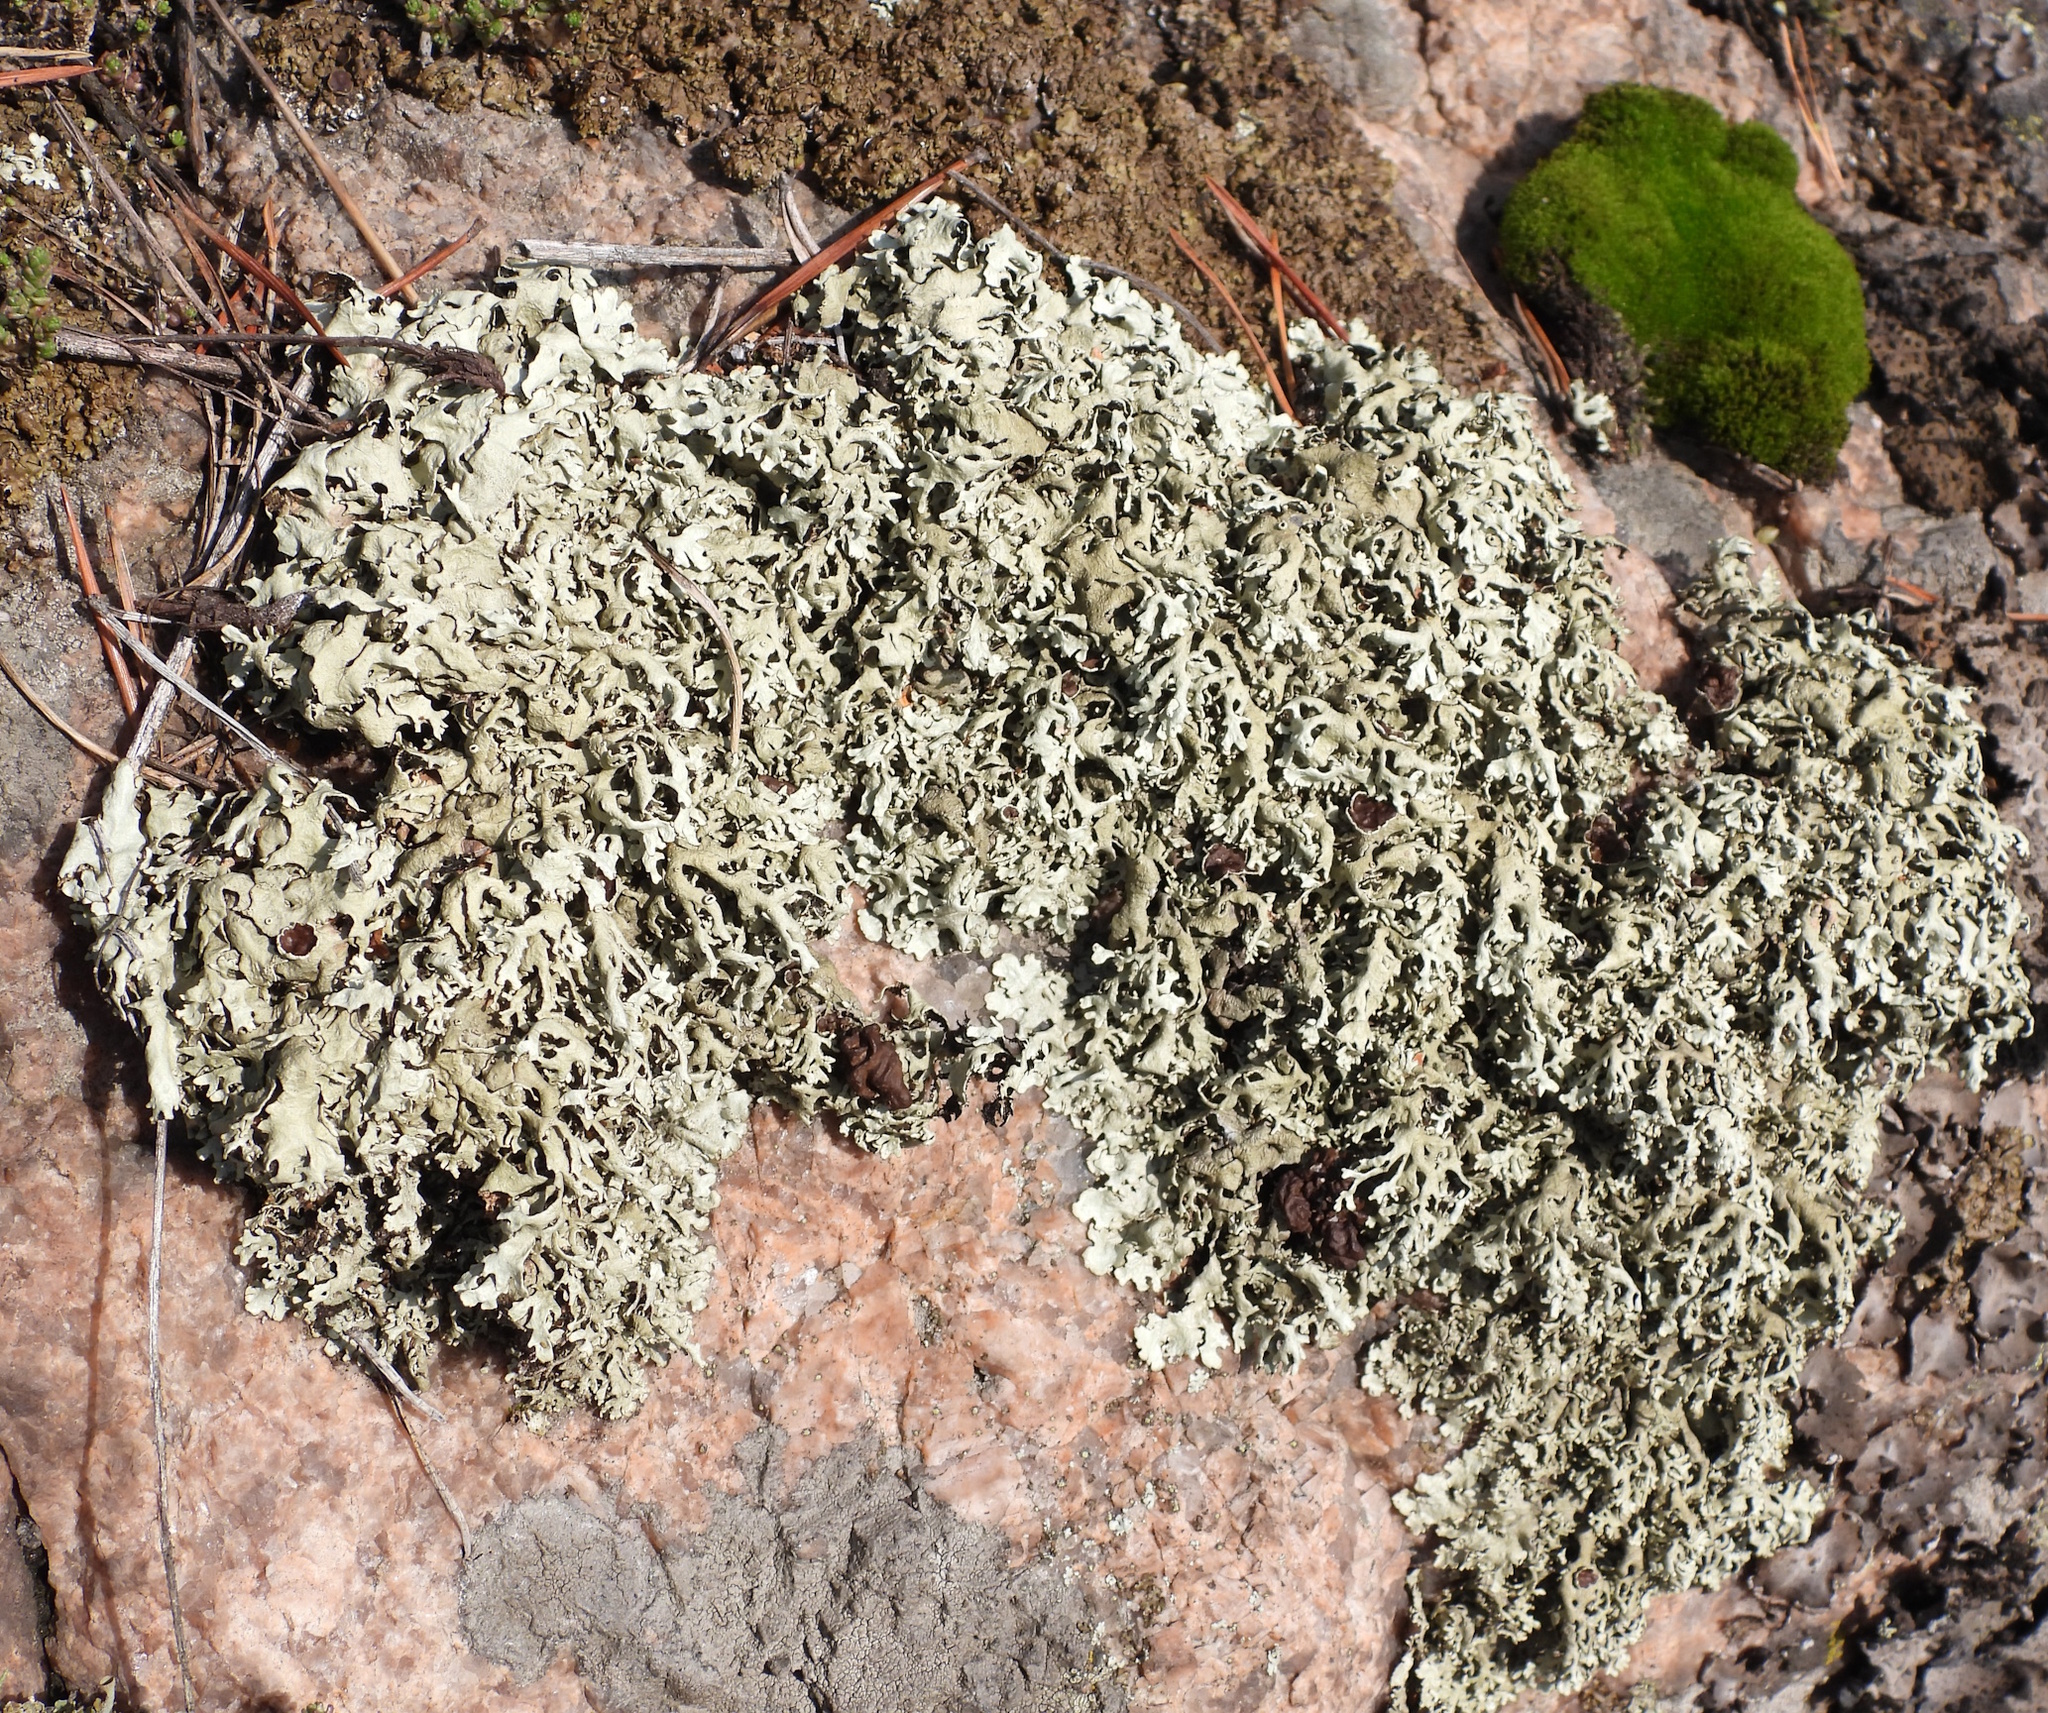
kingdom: Fungi
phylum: Ascomycota
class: Lecanoromycetes
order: Lecanorales
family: Parmeliaceae
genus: Xanthoparmelia
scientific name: Xanthoparmelia stenophylla
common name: Shingled rock shield
